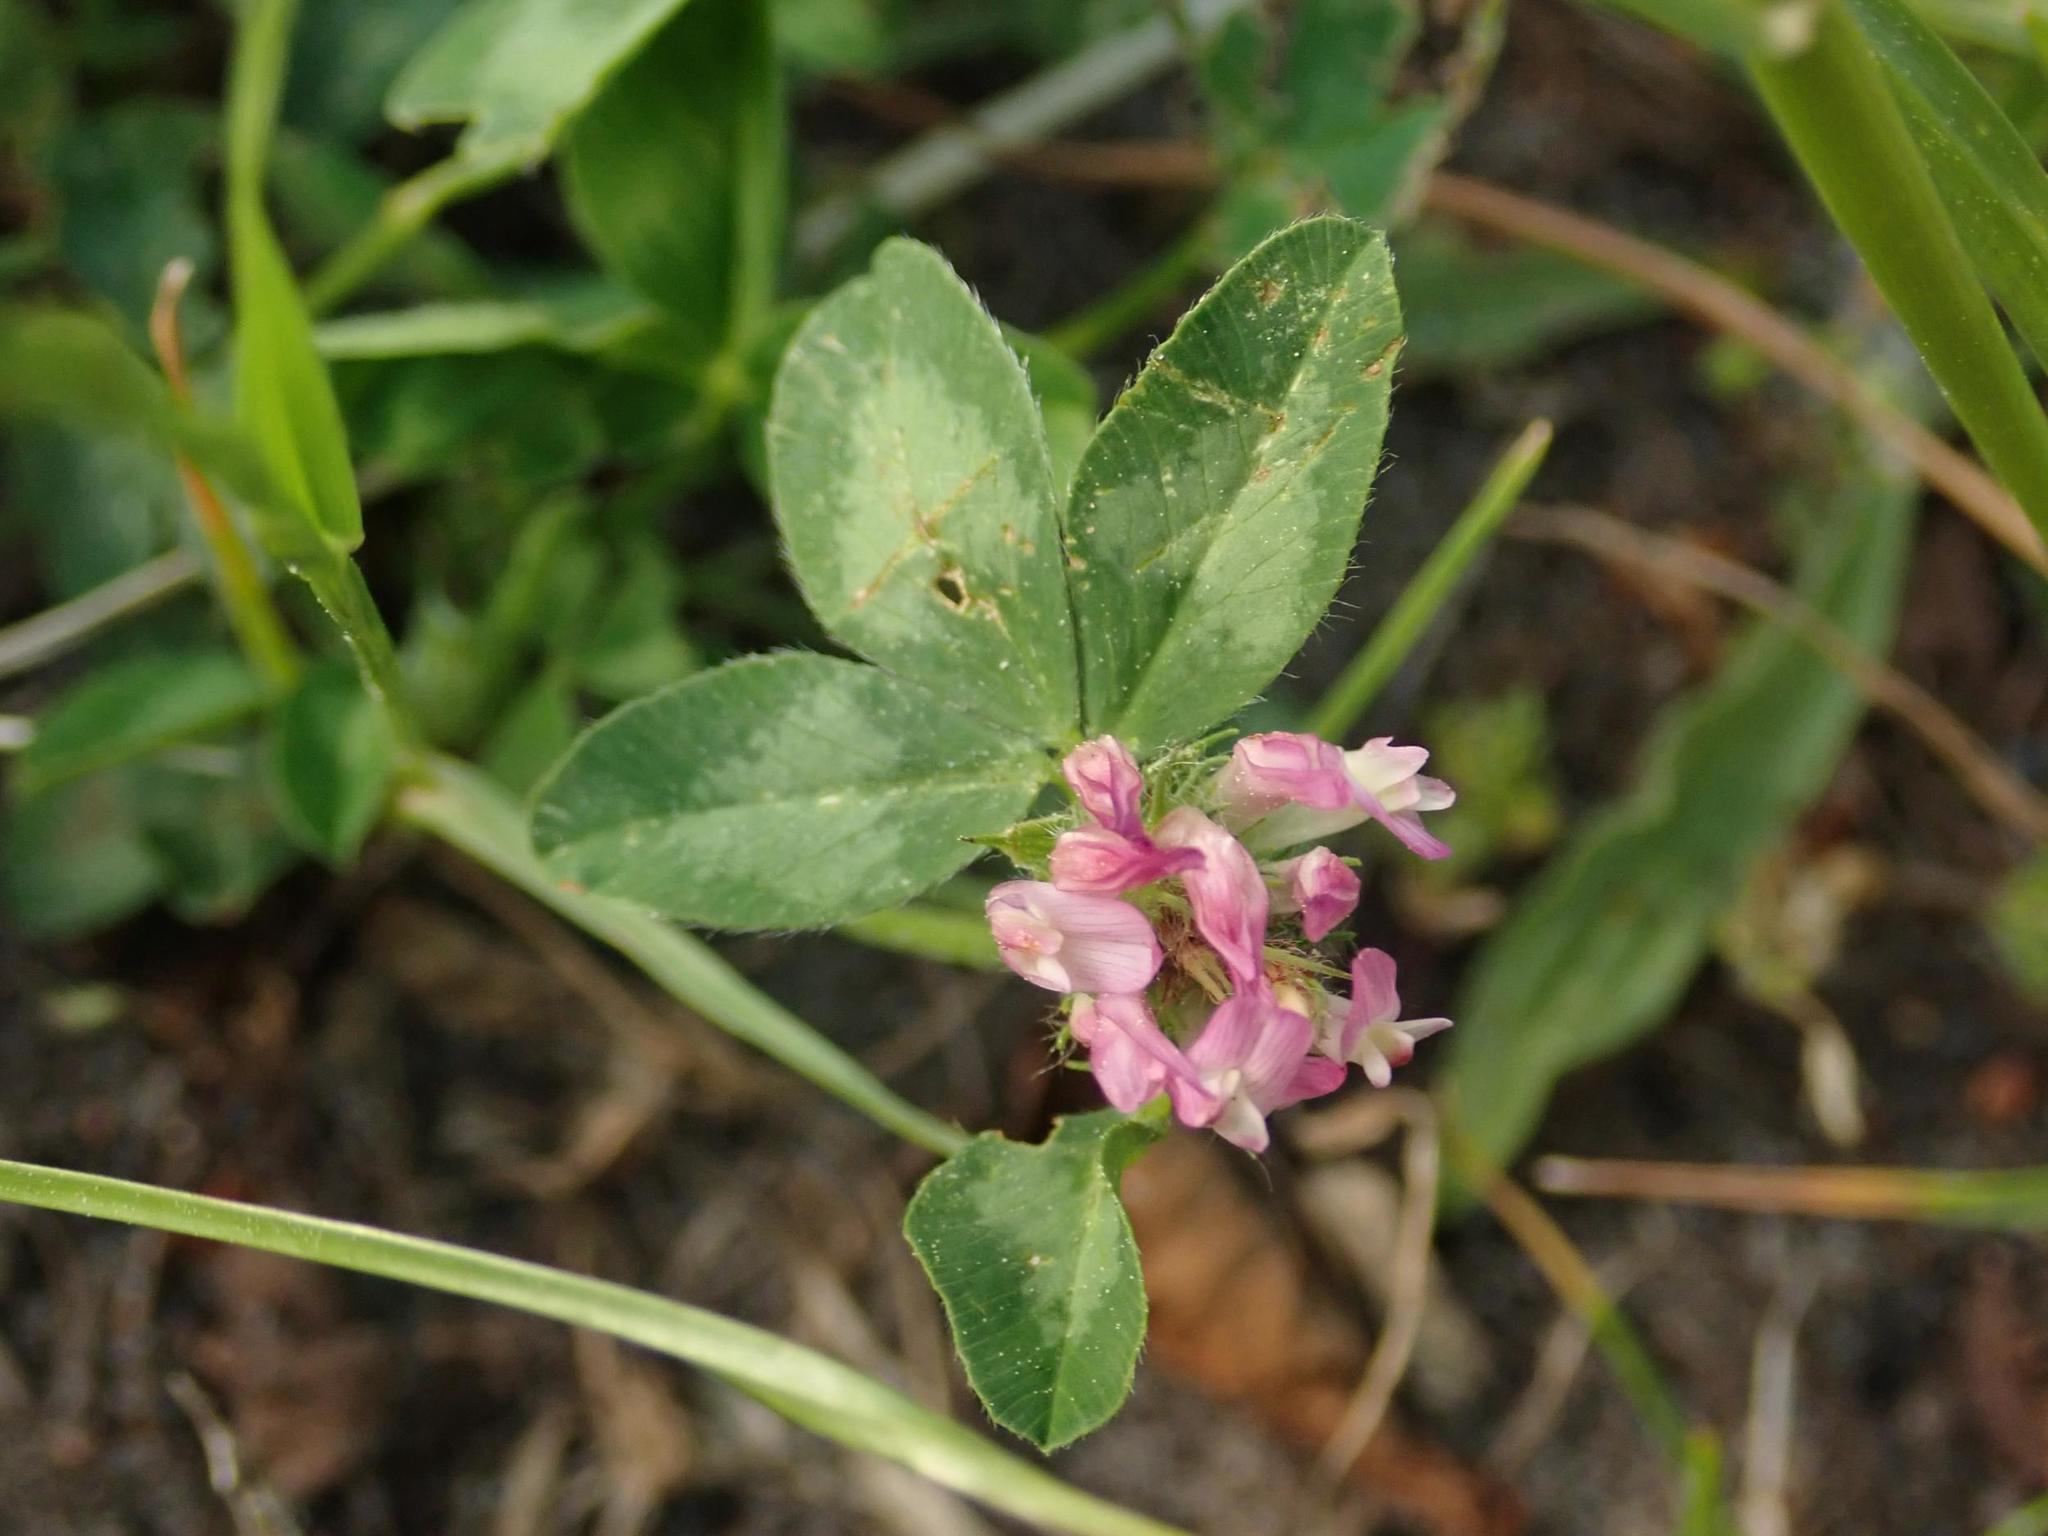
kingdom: Plantae
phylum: Tracheophyta
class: Magnoliopsida
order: Fabales
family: Fabaceae
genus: Trifolium
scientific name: Trifolium pratense
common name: Red clover
